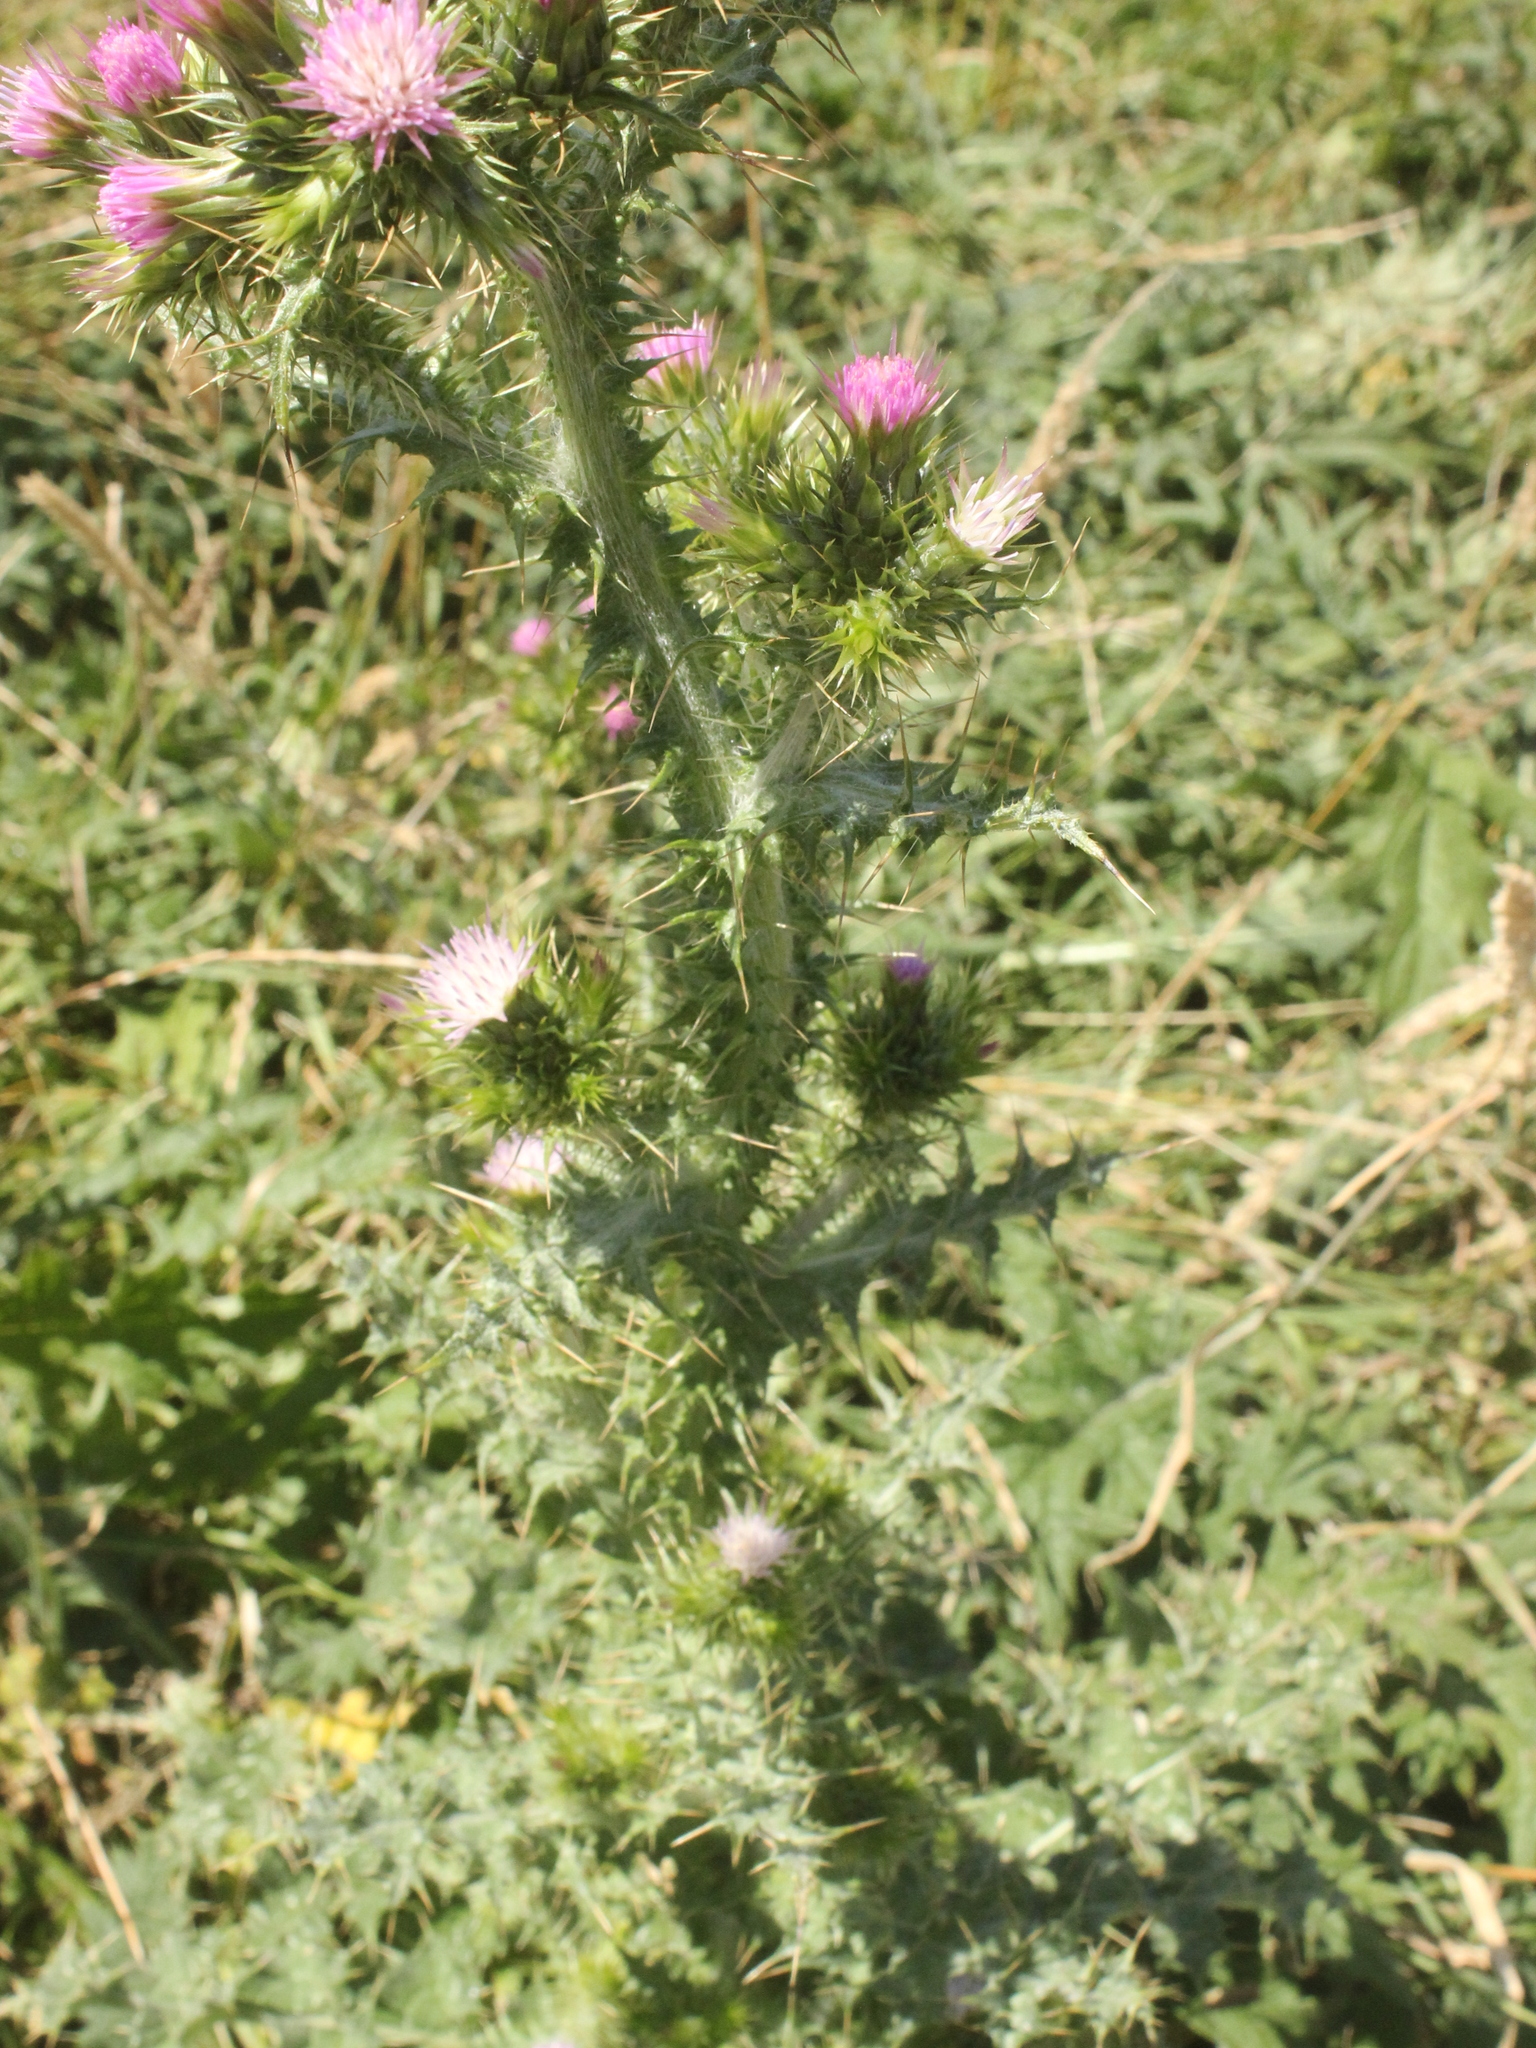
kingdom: Plantae
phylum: Tracheophyta
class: Magnoliopsida
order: Asterales
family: Asteraceae
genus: Carduus
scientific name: Carduus tenuiflorus
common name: Slender thistle
